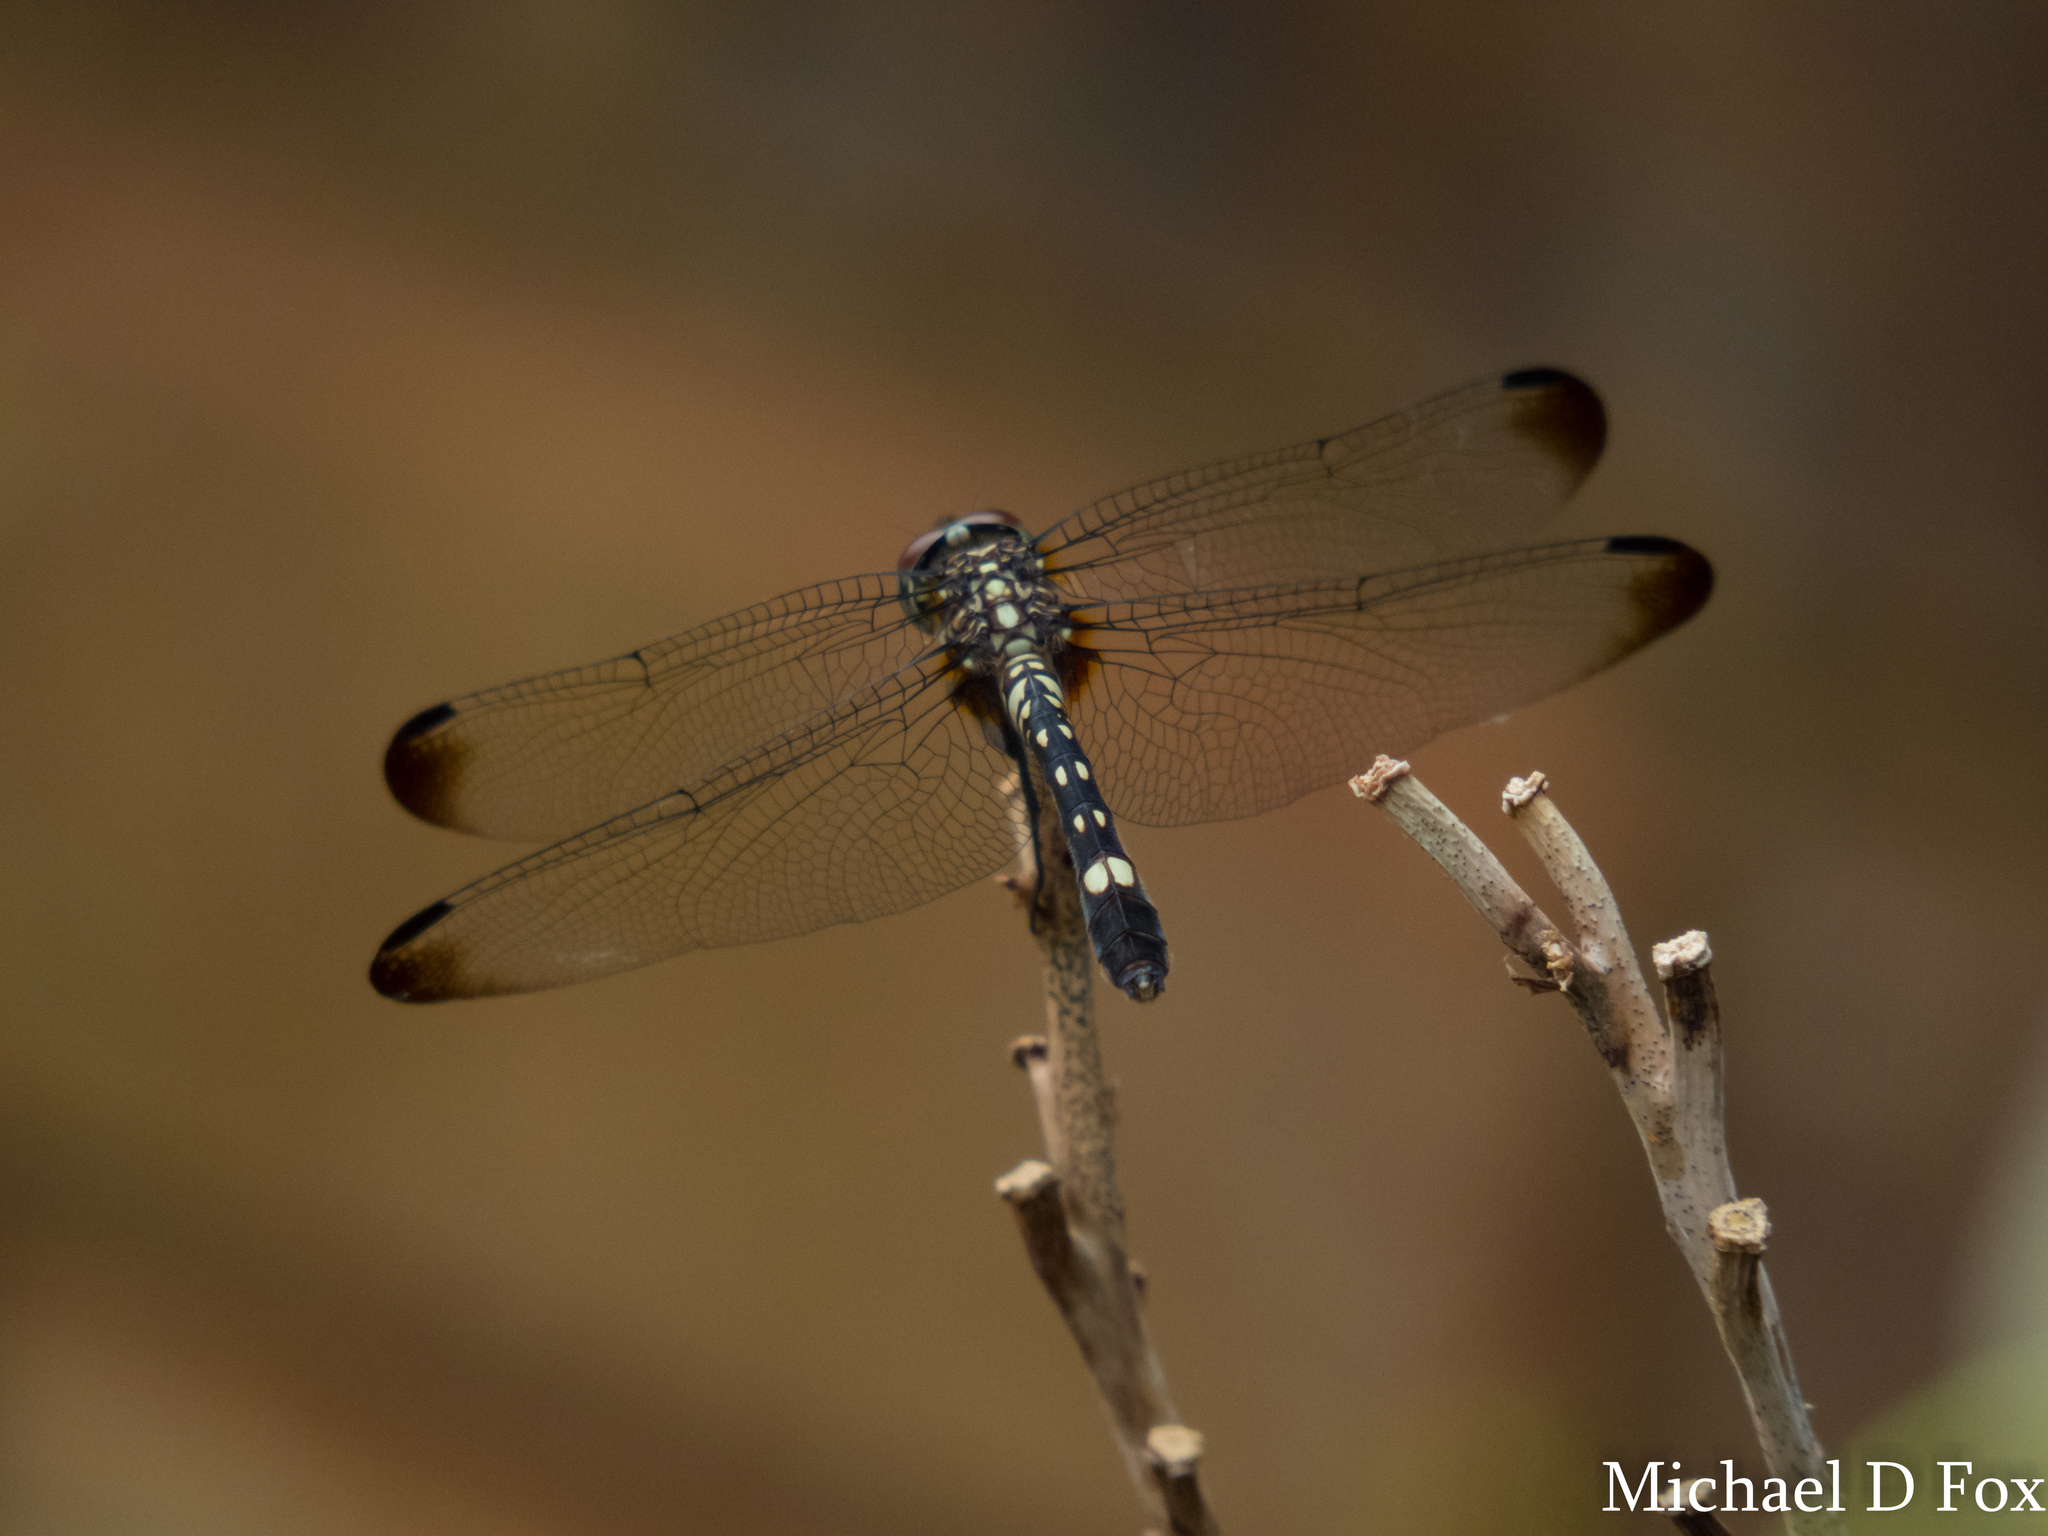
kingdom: Animalia
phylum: Arthropoda
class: Insecta
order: Odonata
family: Libellulidae
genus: Dythemis
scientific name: Dythemis velox
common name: Swift setwing
